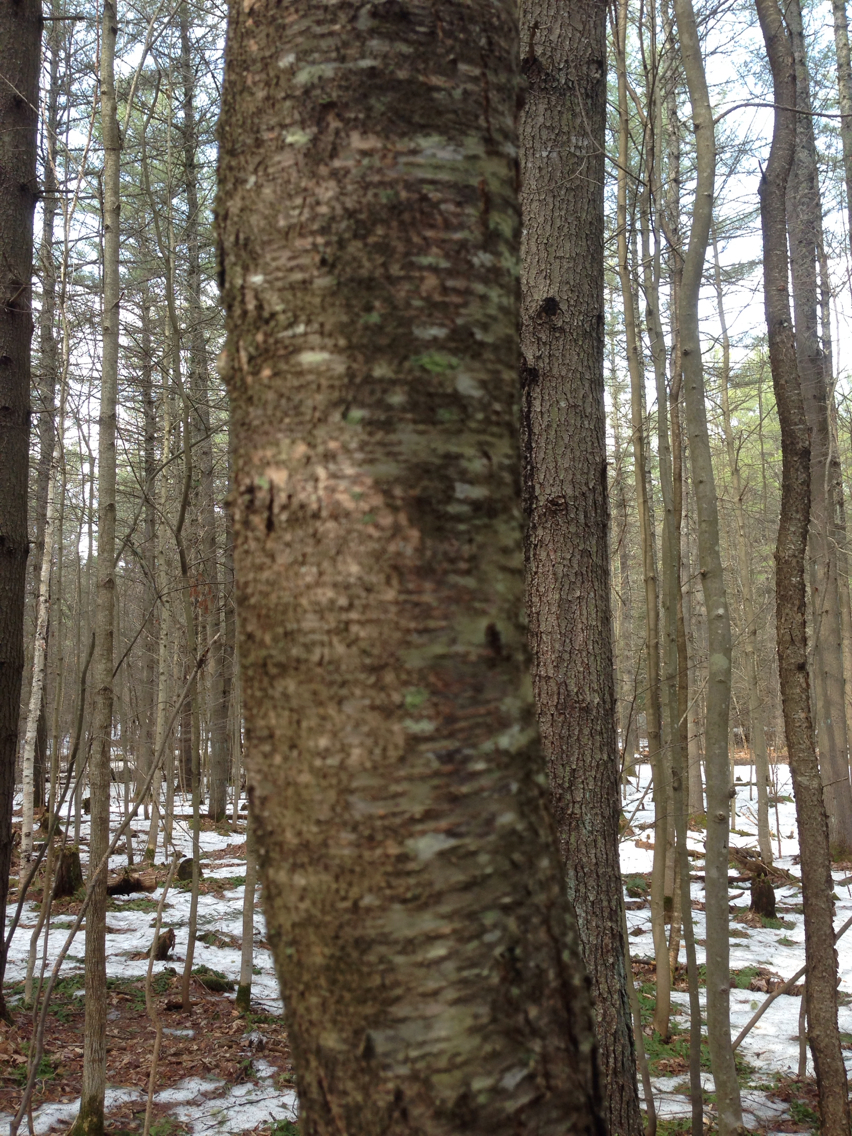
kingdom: Plantae
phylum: Tracheophyta
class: Magnoliopsida
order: Rosales
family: Rosaceae
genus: Prunus
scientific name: Prunus pensylvanica
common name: Pin cherry
